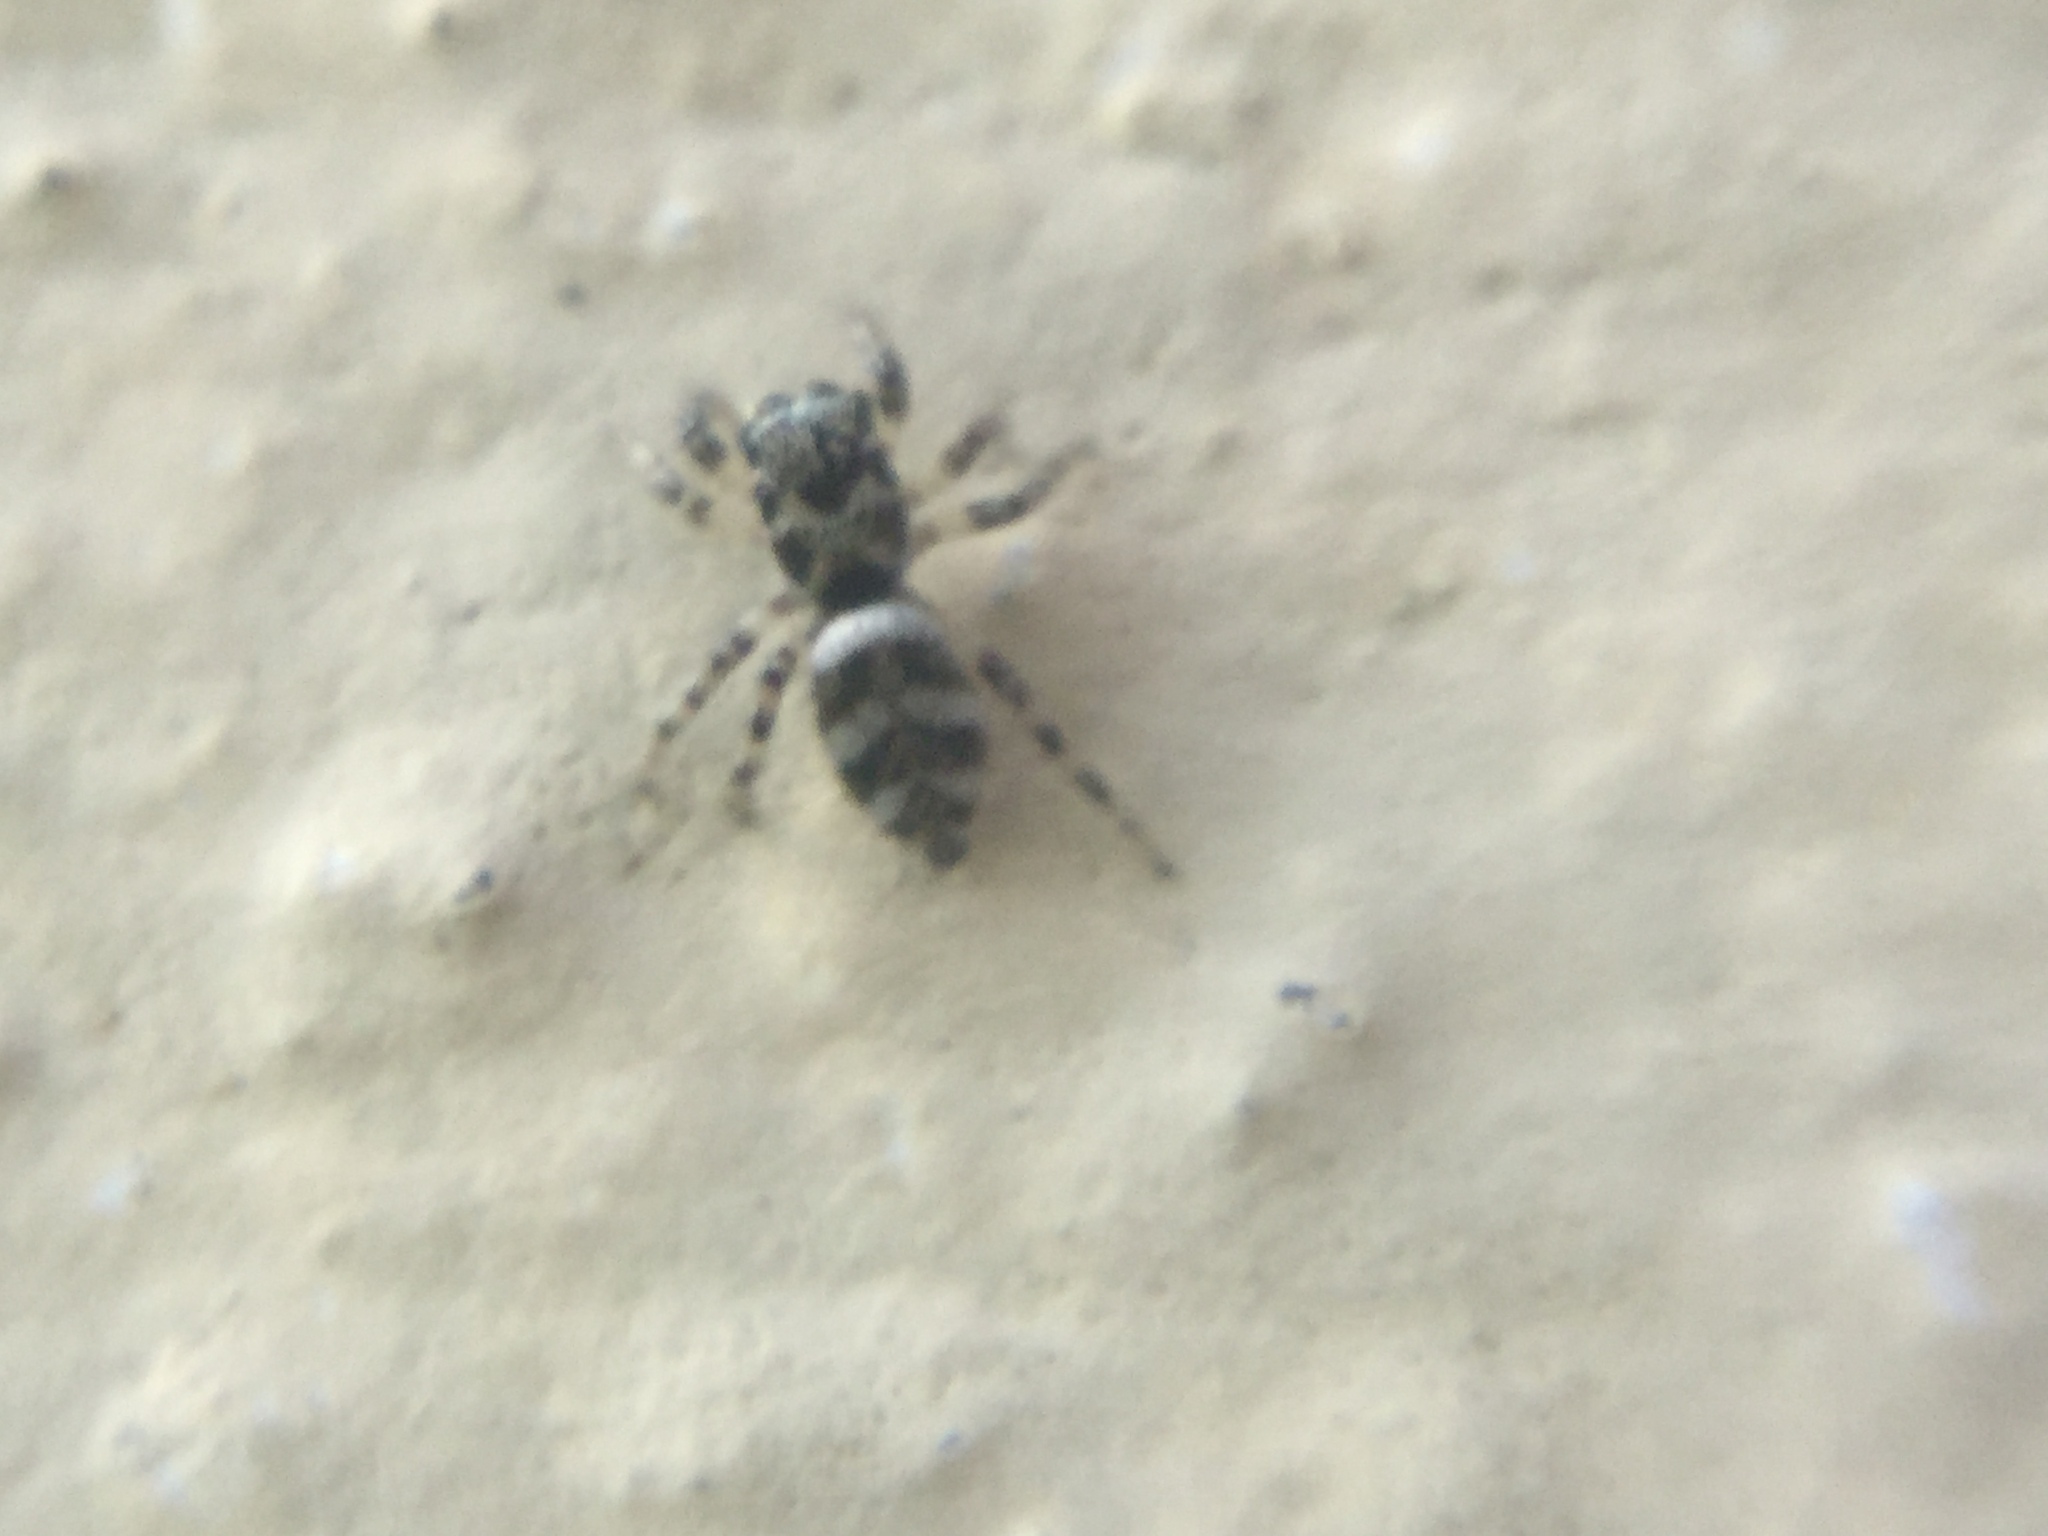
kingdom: Animalia
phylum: Arthropoda
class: Arachnida
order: Araneae
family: Salticidae
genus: Salticus
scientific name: Salticus scenicus
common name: Zebra jumper
